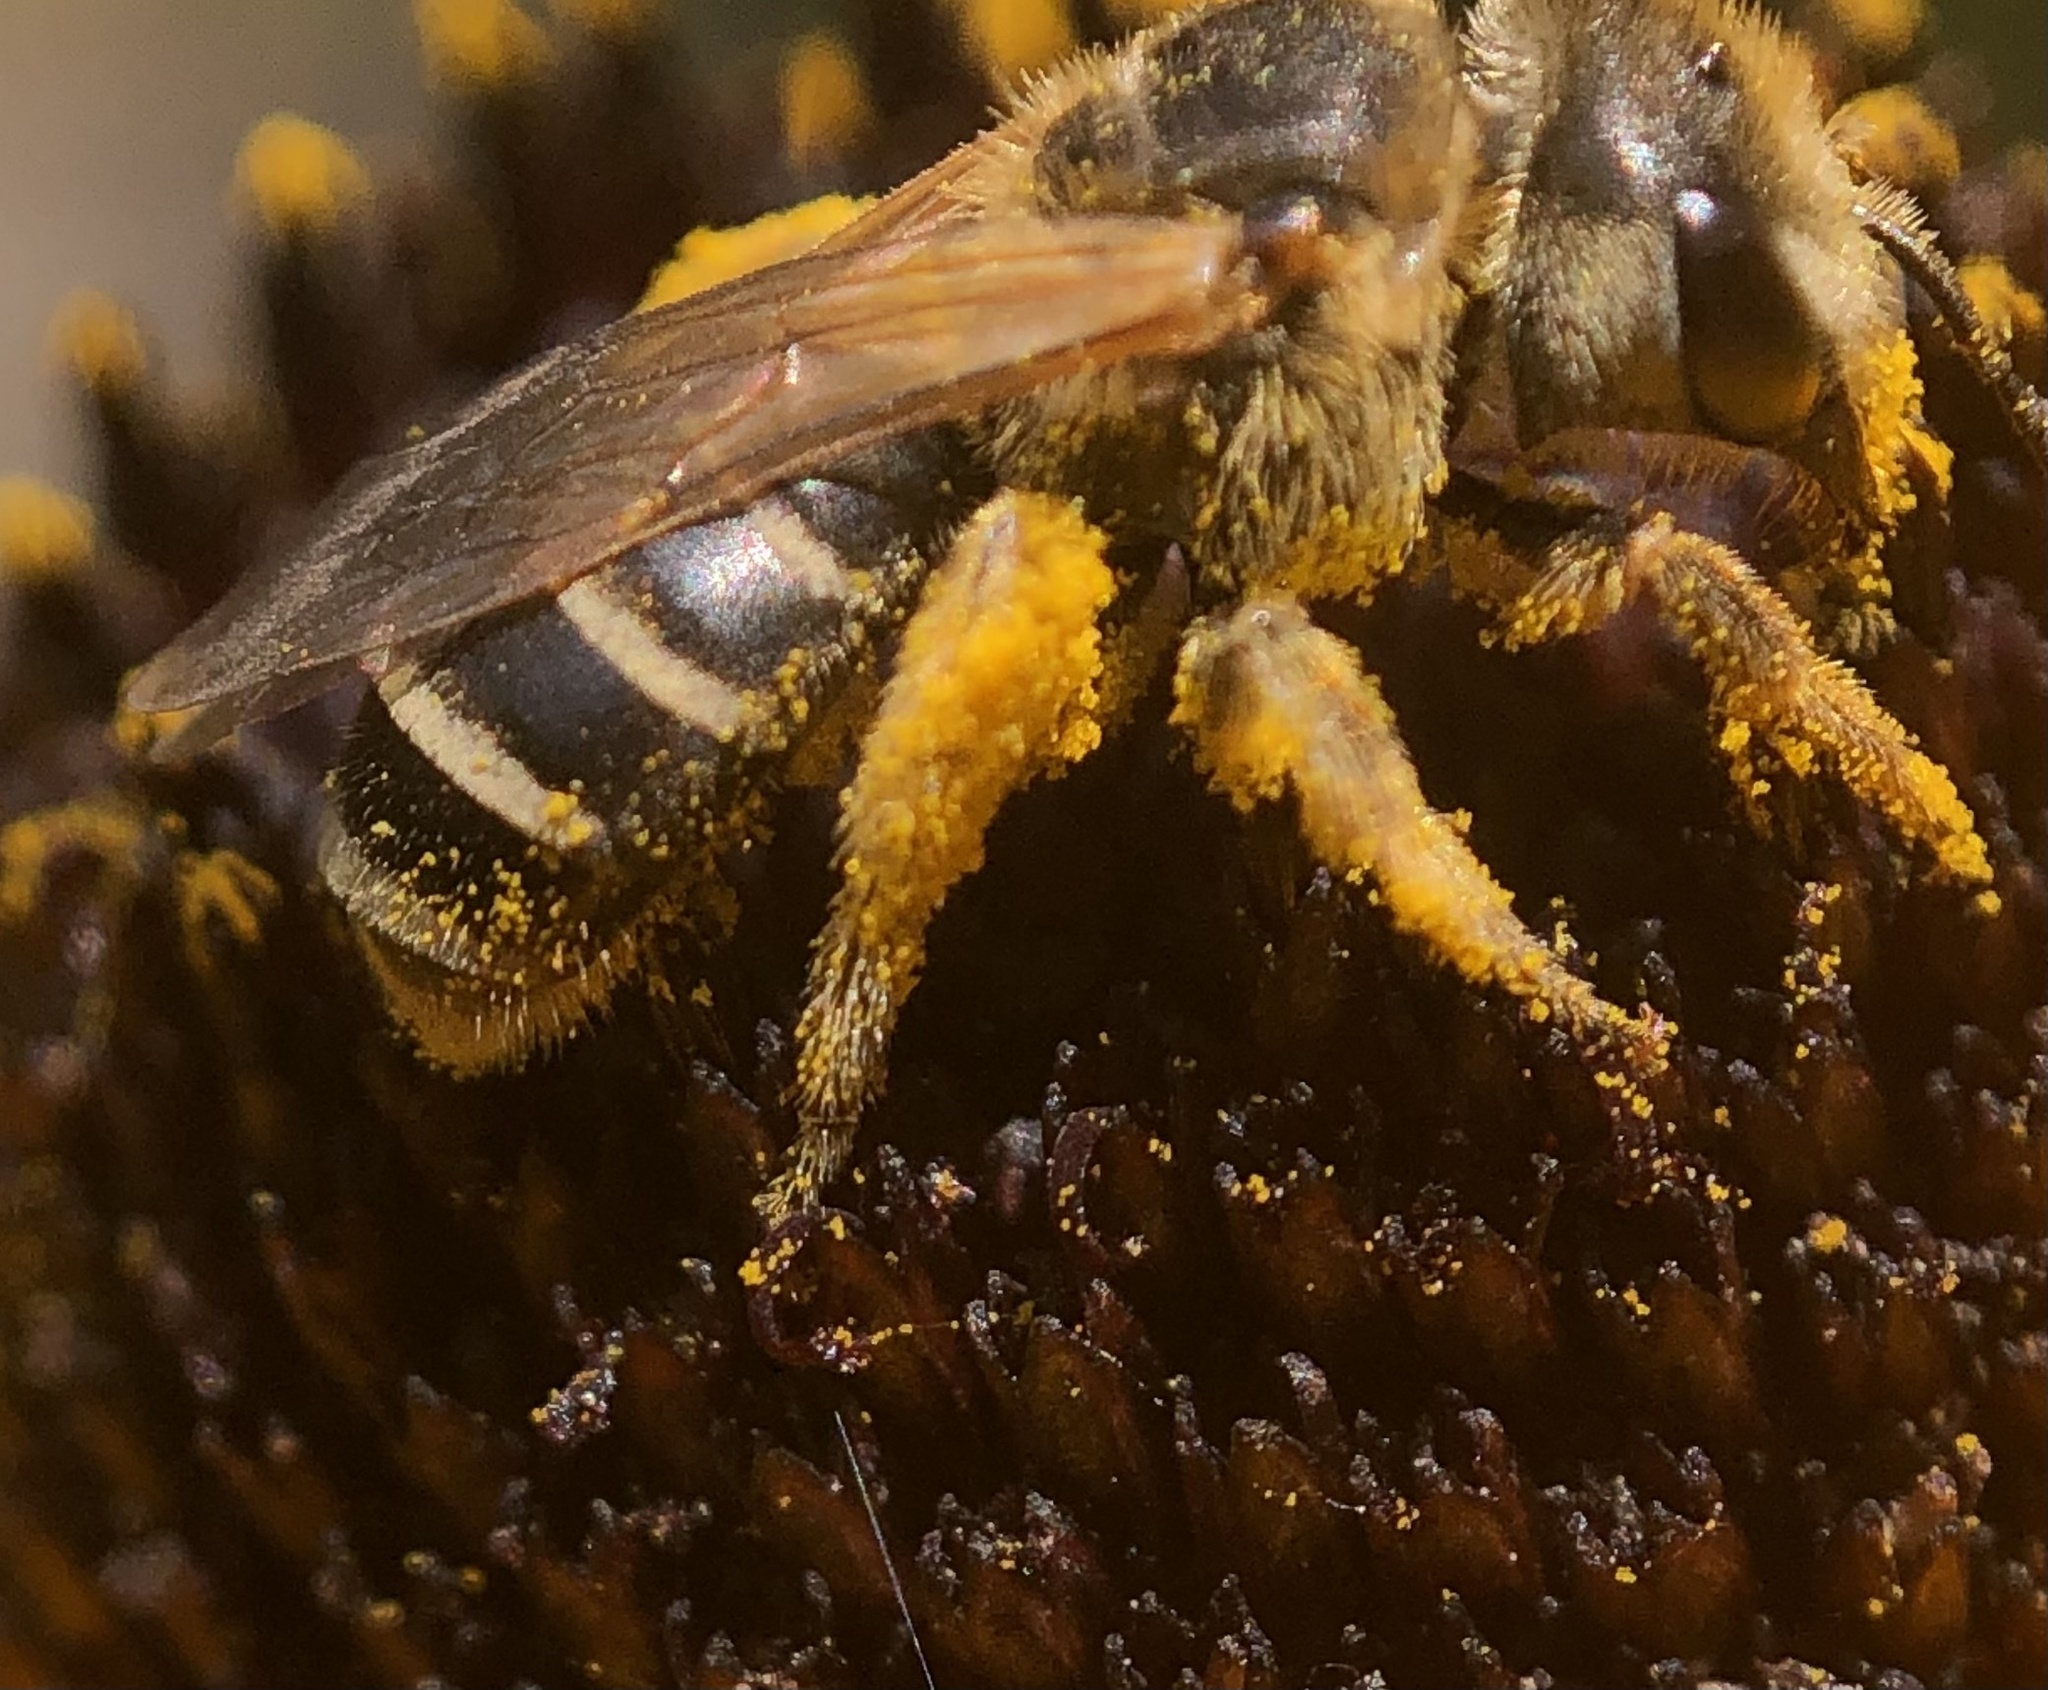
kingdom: Animalia
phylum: Arthropoda
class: Insecta
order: Hymenoptera
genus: Odontalictus
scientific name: Odontalictus
